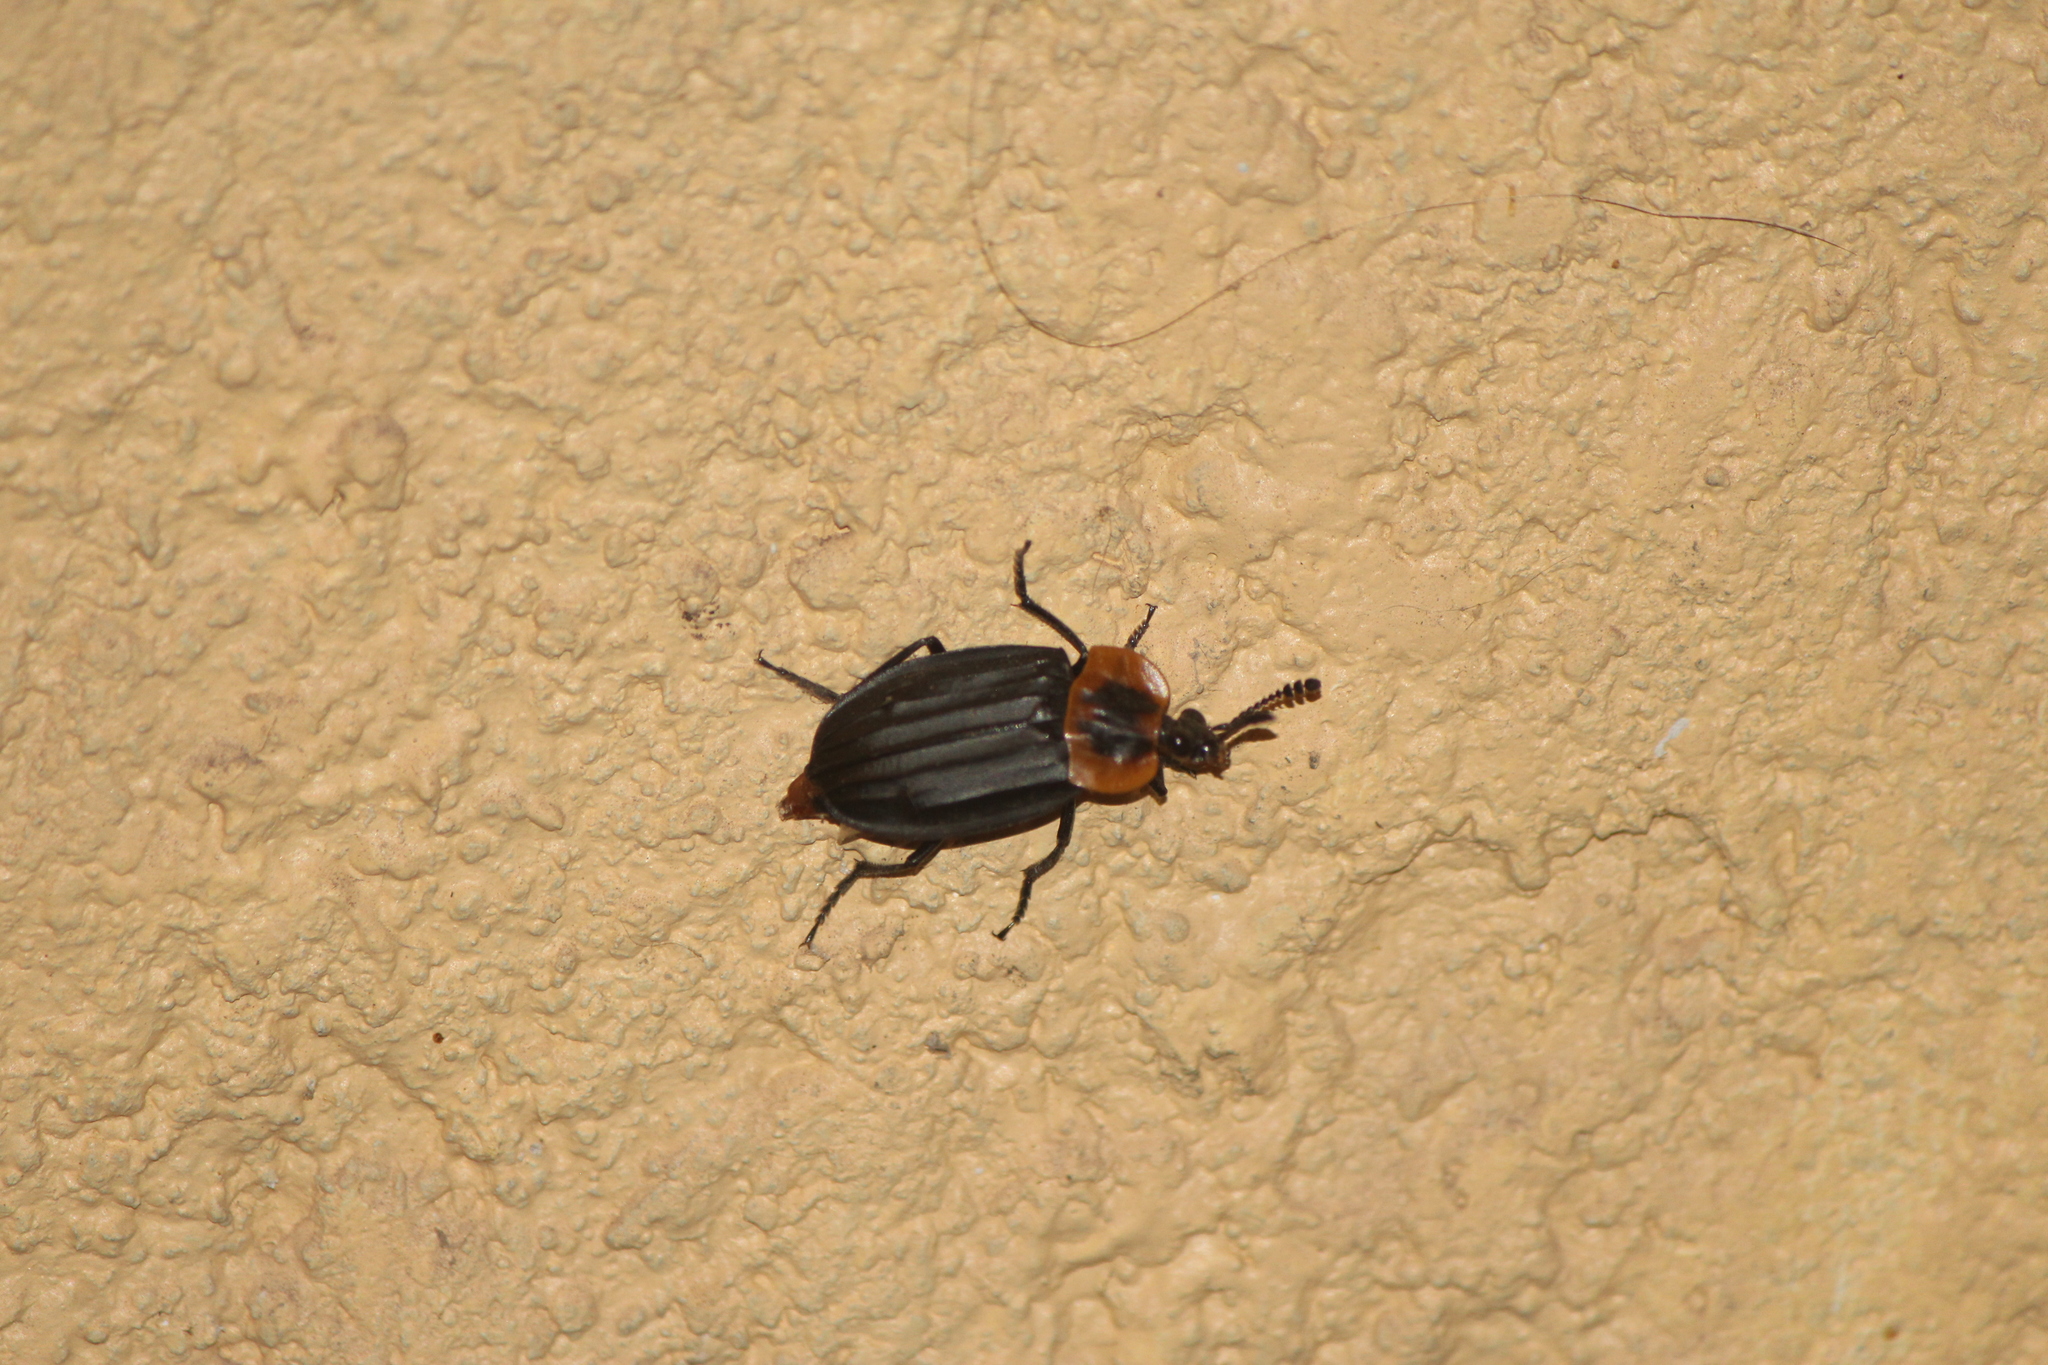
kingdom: Animalia
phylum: Arthropoda
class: Insecta
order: Coleoptera
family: Staphylinidae
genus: Oxelytrum
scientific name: Oxelytrum discicolle
